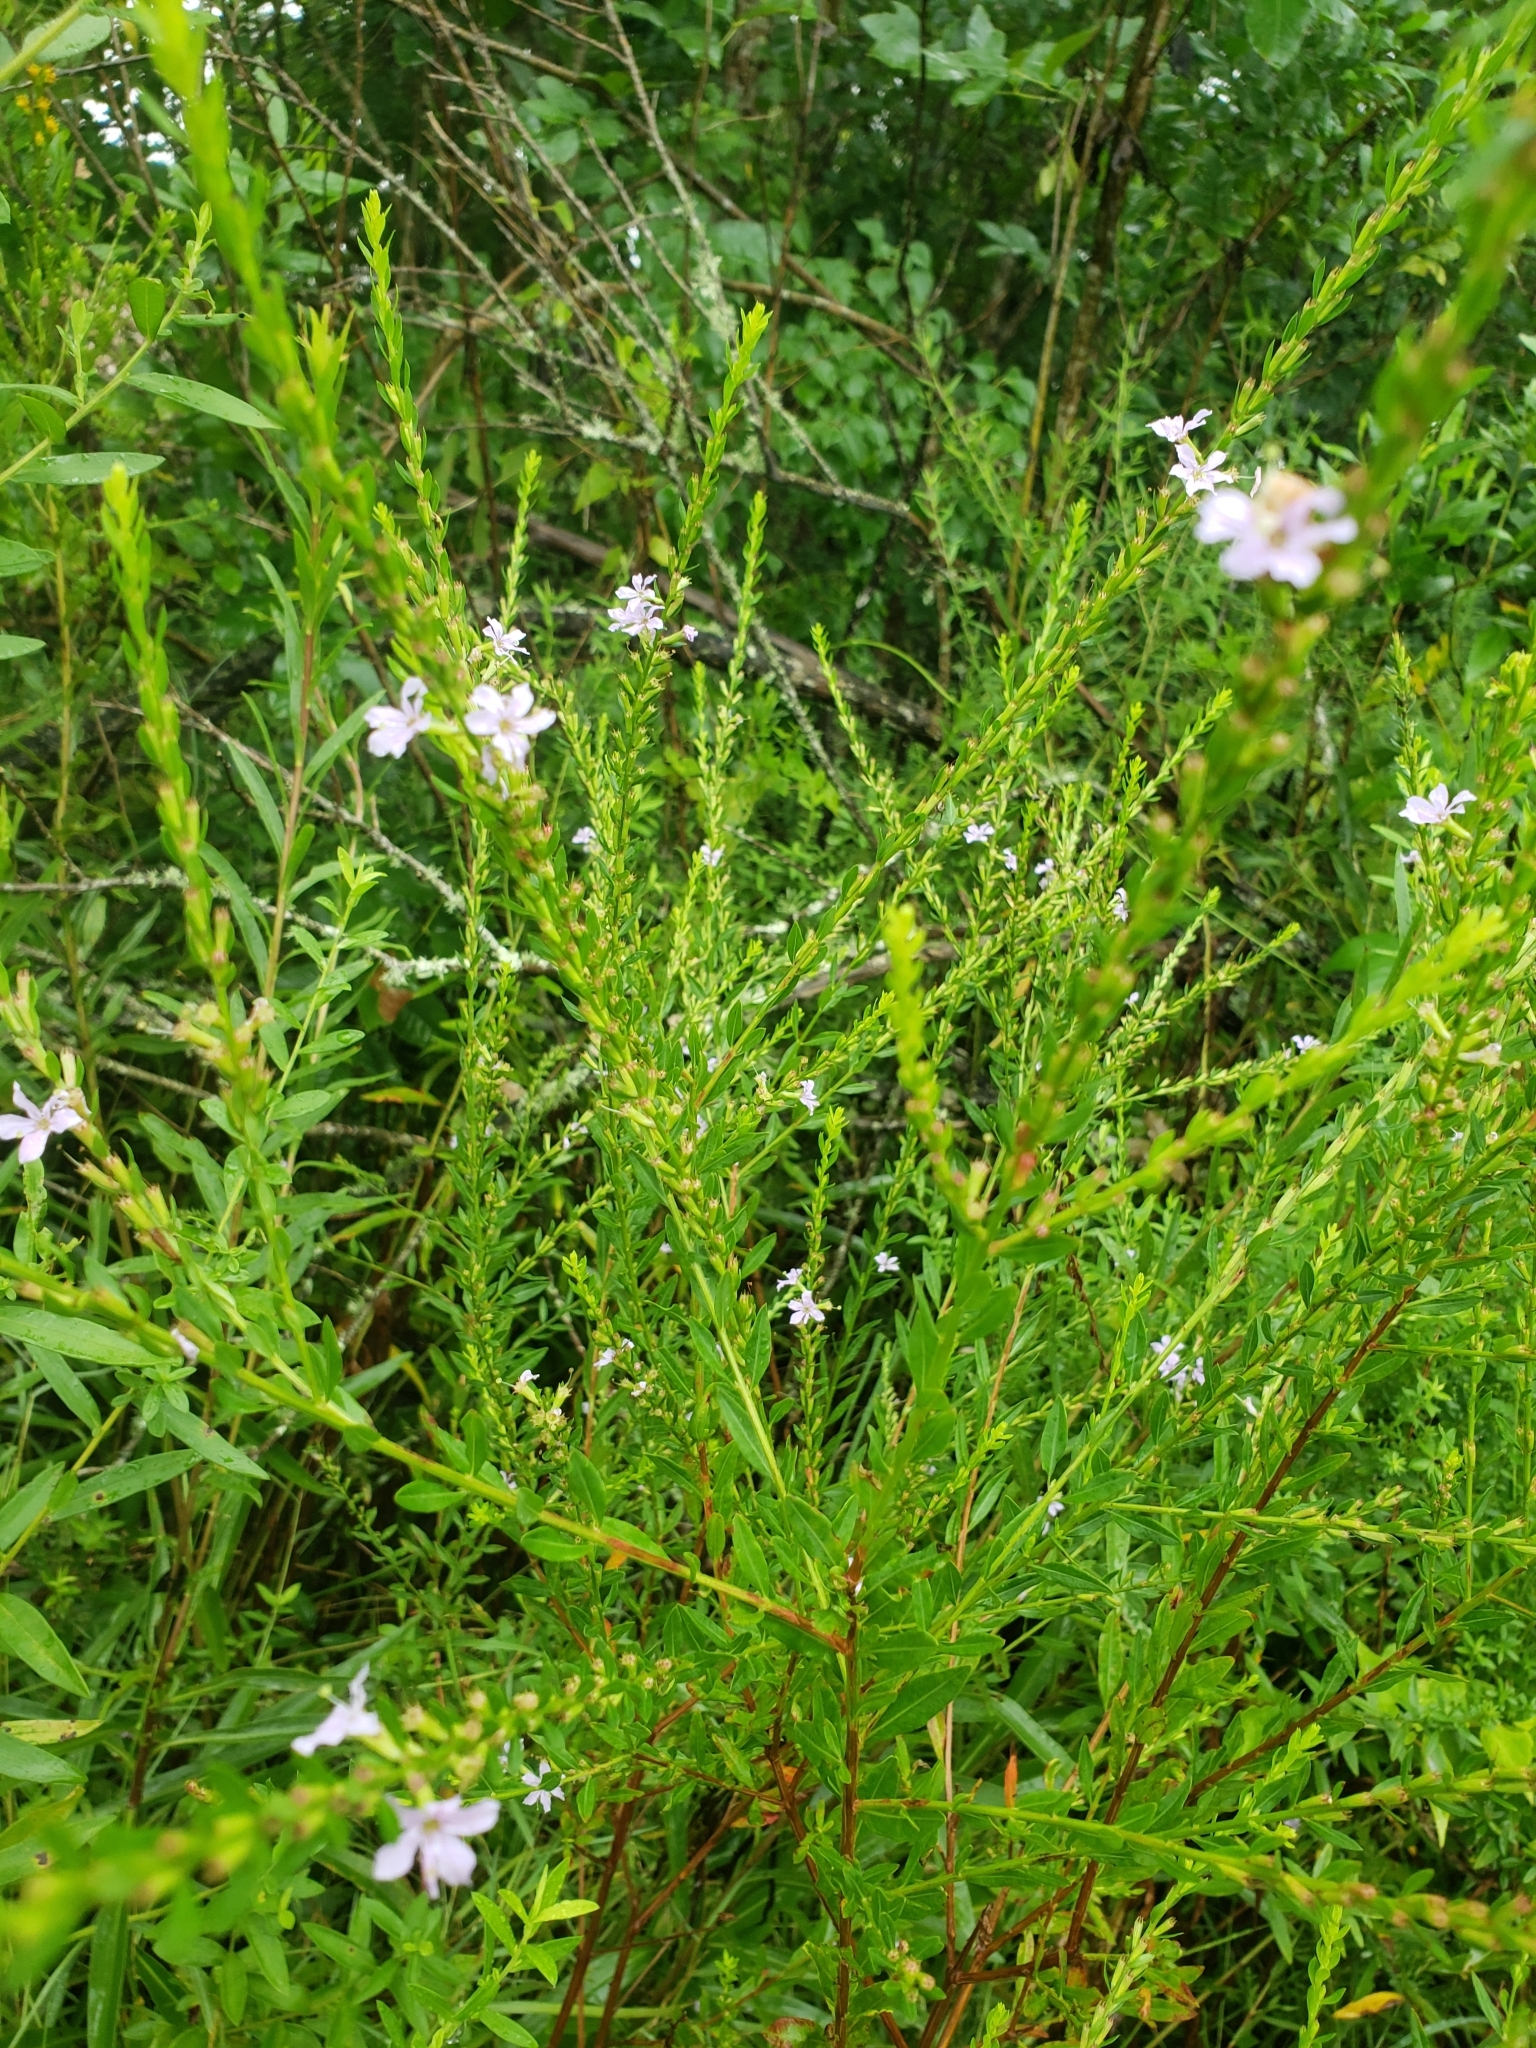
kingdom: Plantae
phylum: Tracheophyta
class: Magnoliopsida
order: Myrtales
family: Lythraceae
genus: Lythrum
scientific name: Lythrum alatum
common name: Winged loosestrife
